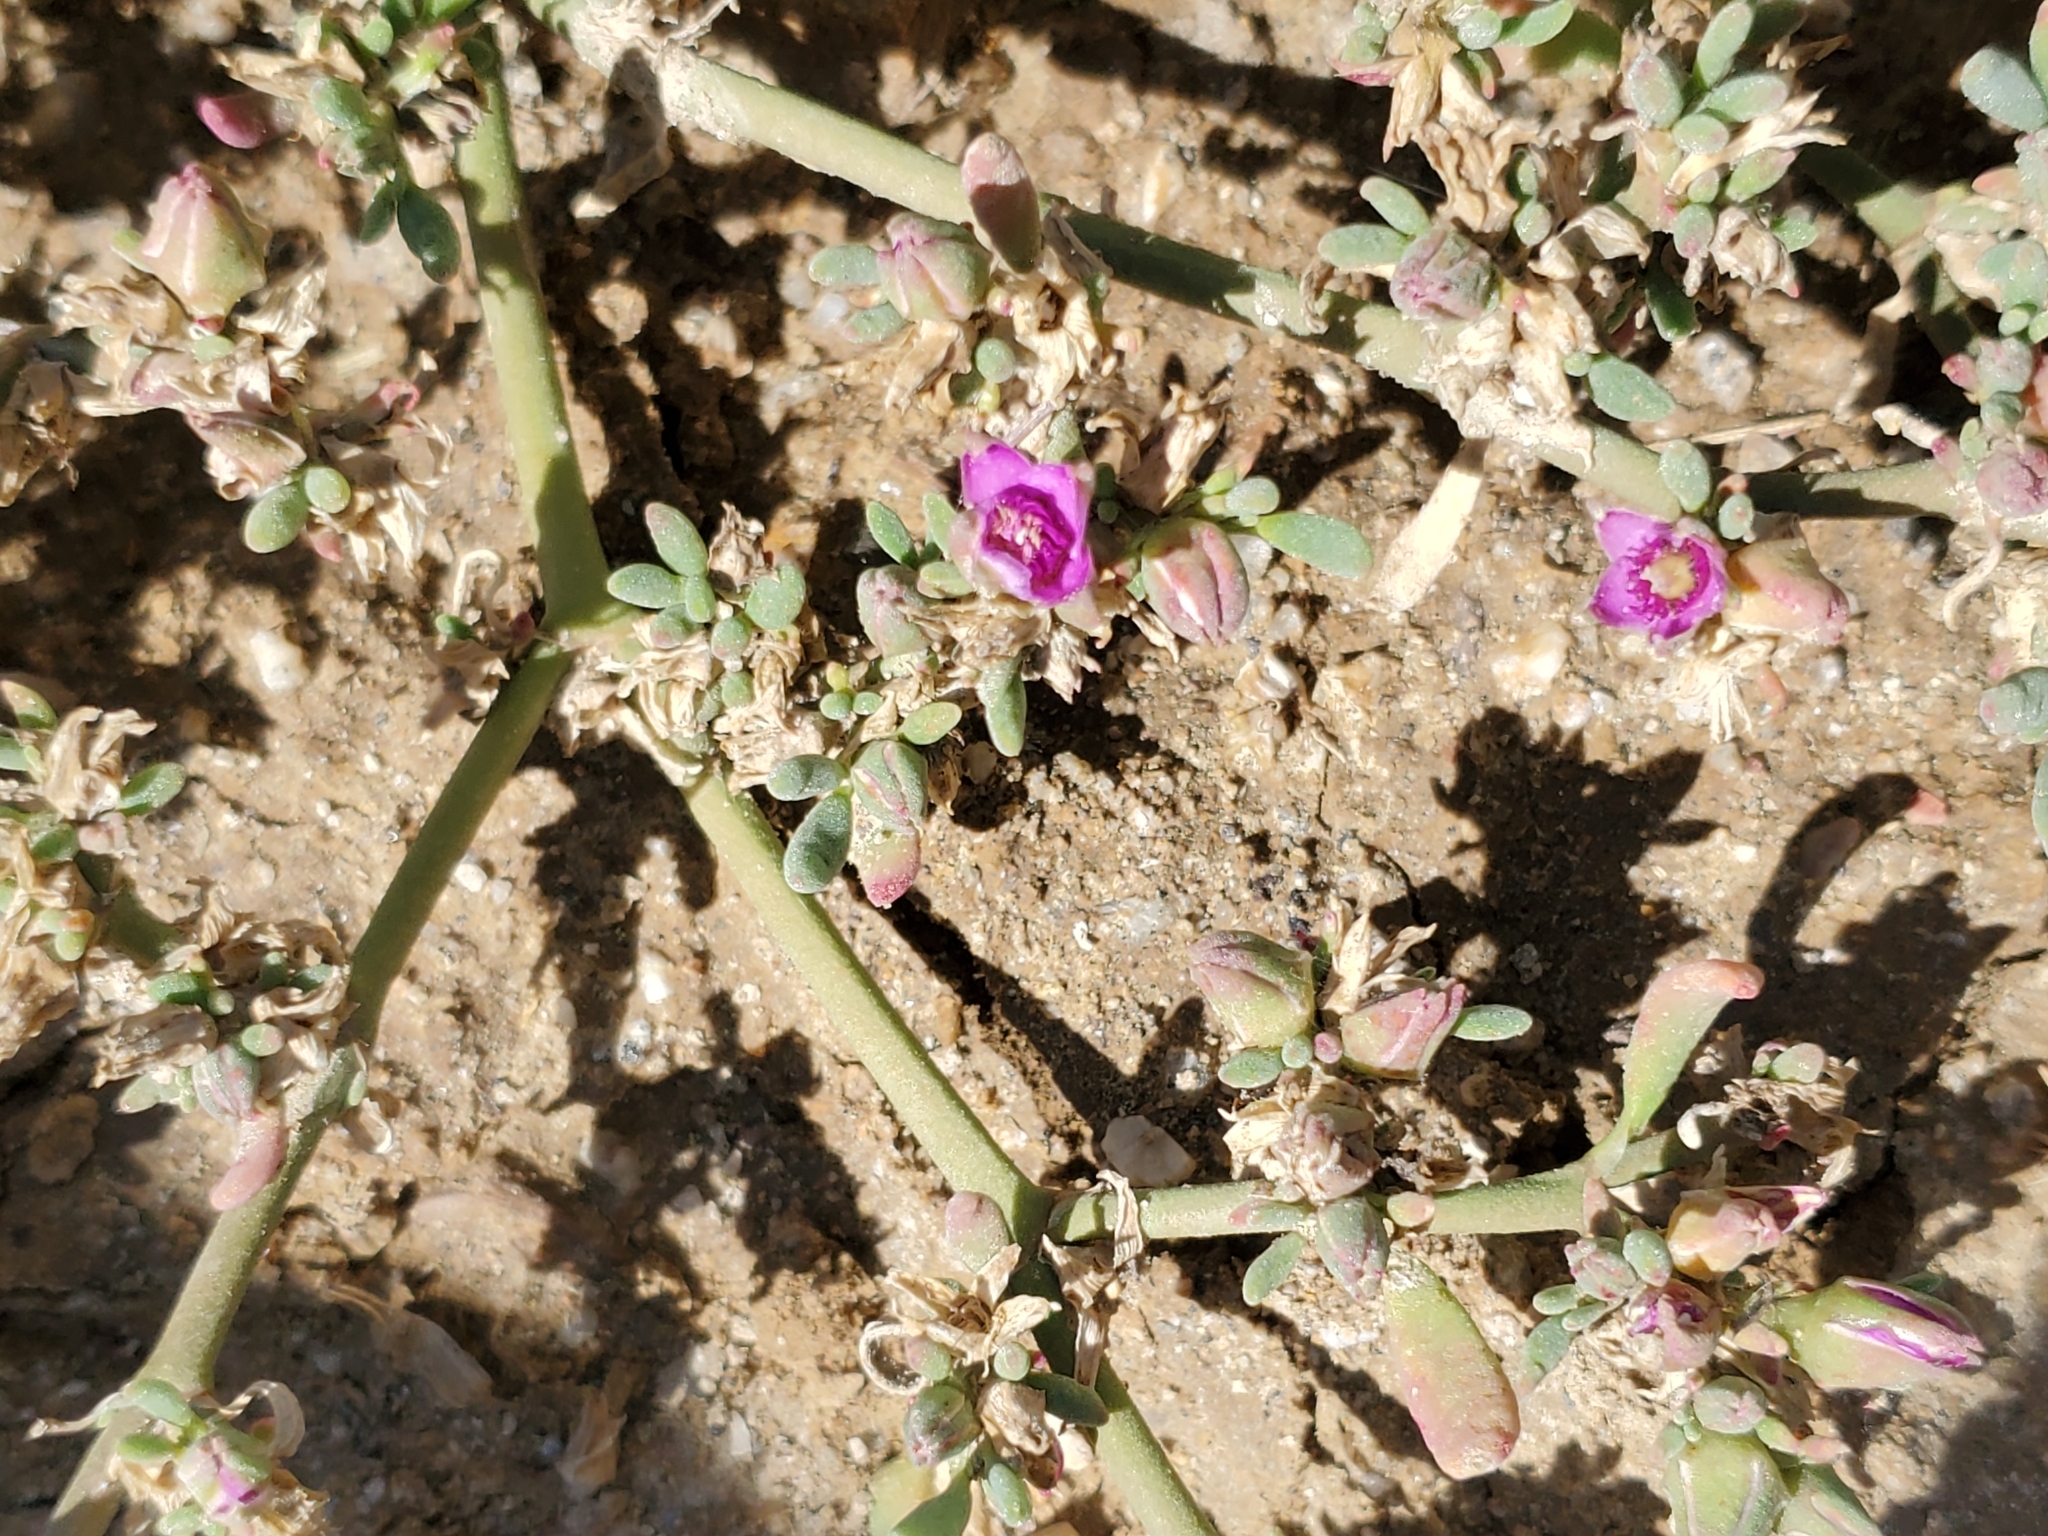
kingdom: Plantae
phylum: Tracheophyta
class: Magnoliopsida
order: Caryophyllales
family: Aizoaceae
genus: Sesuvium
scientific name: Sesuvium revolutifolium
